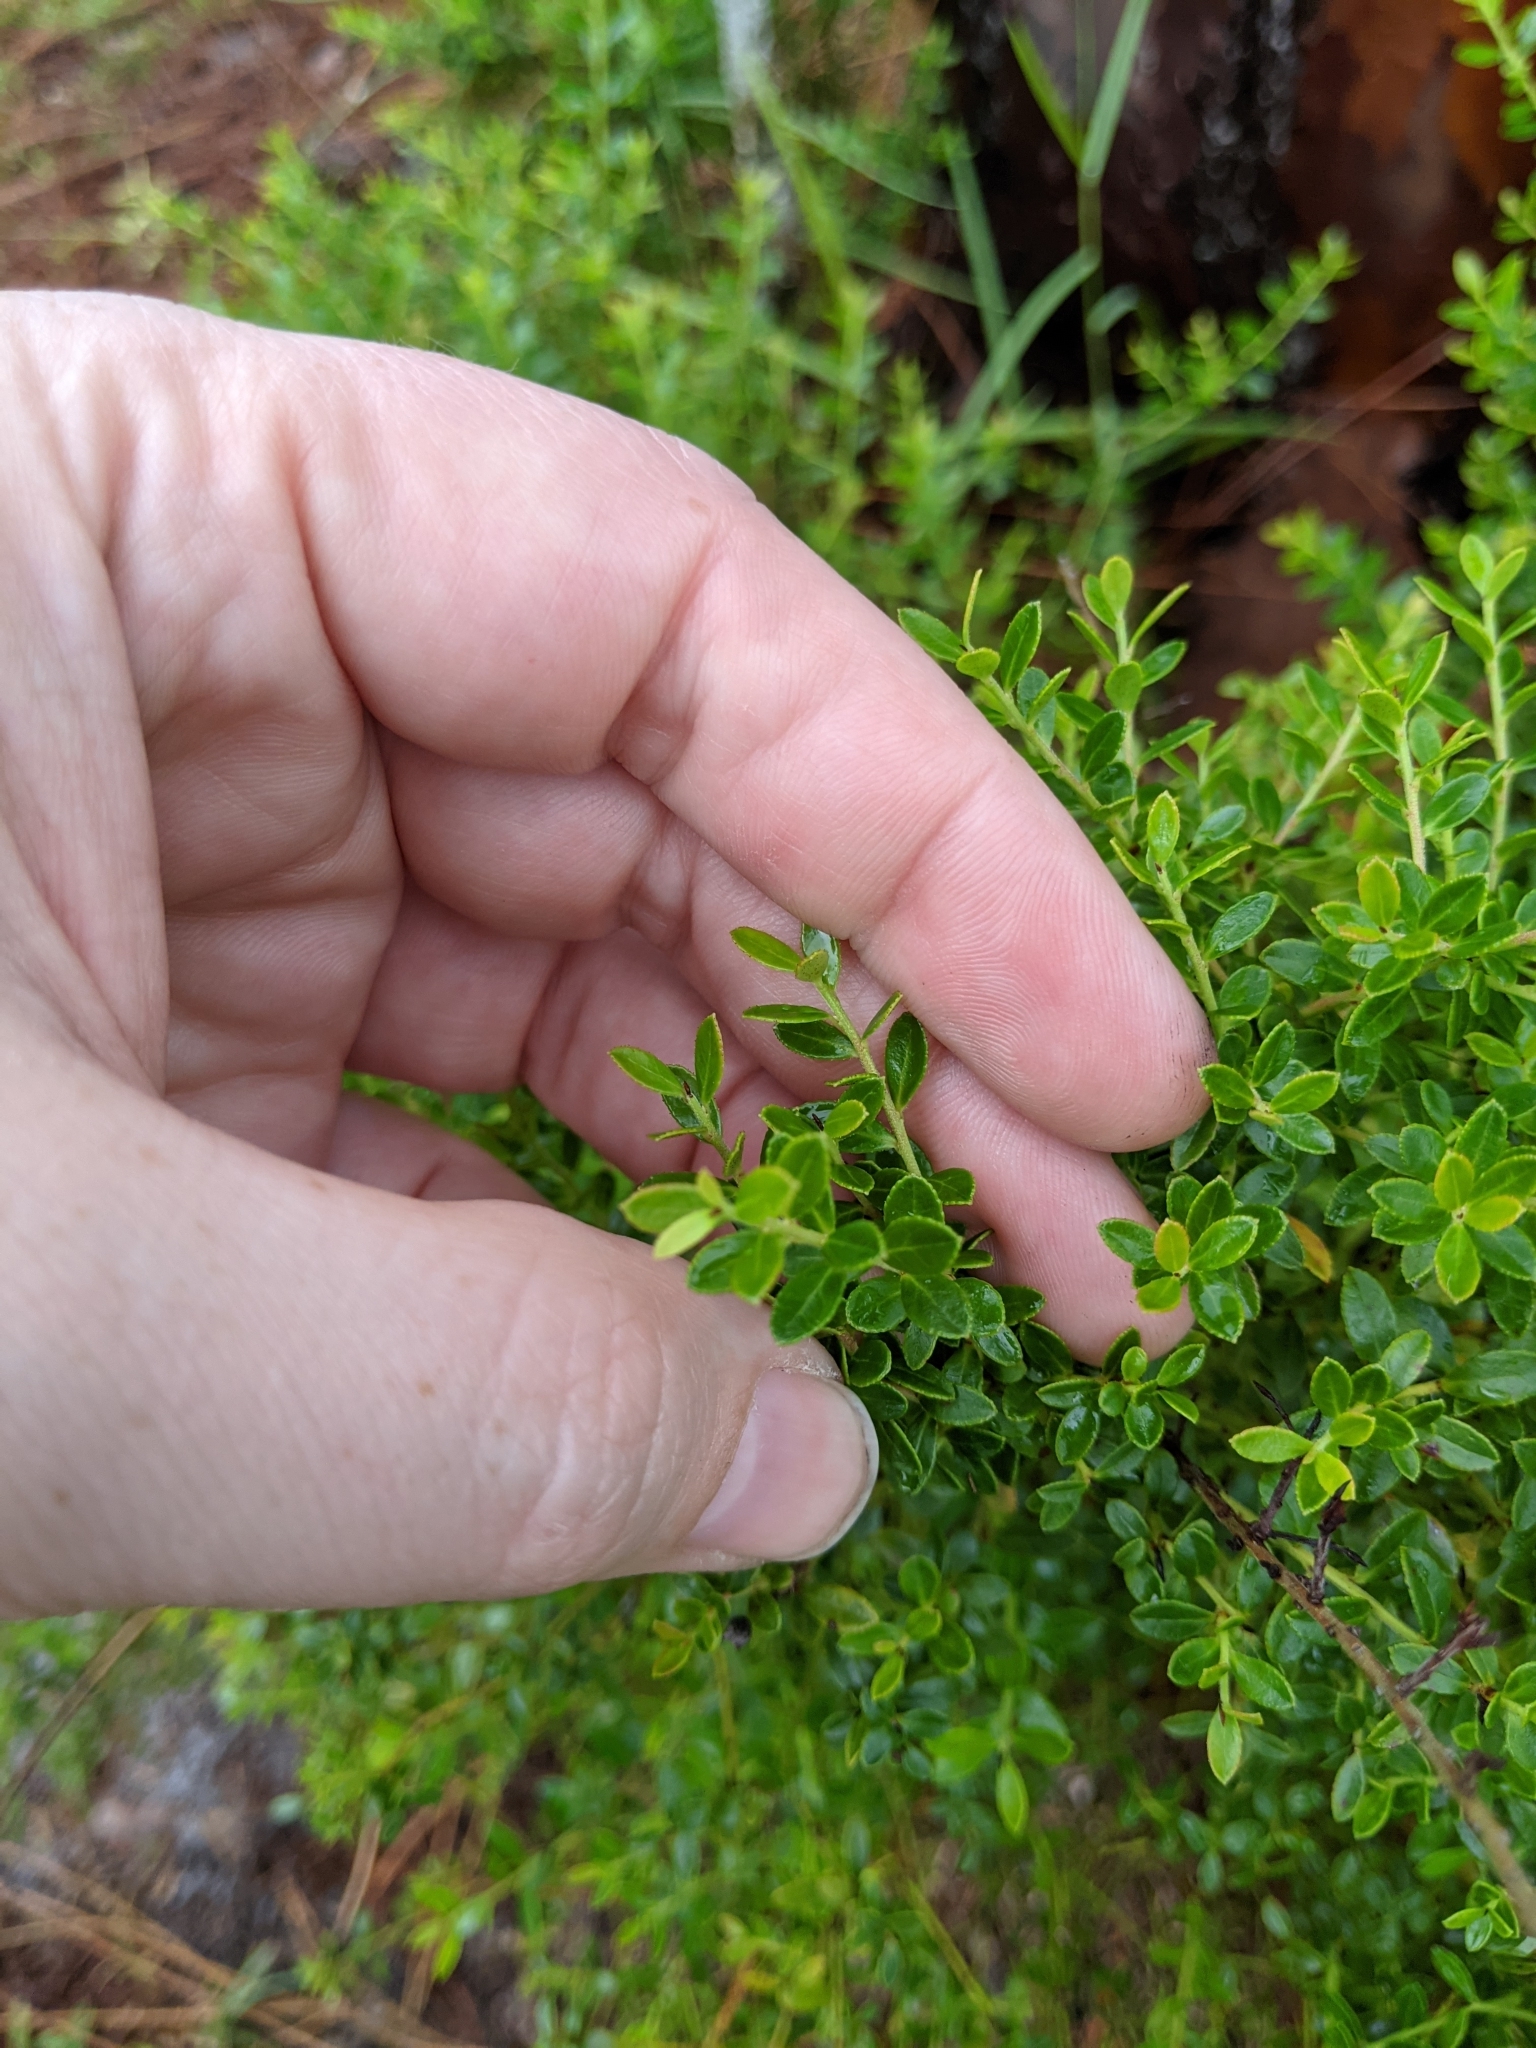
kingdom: Plantae
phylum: Tracheophyta
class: Magnoliopsida
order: Ericales
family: Ericaceae
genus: Vaccinium
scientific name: Vaccinium myrsinites
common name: Evergreen blueberry
